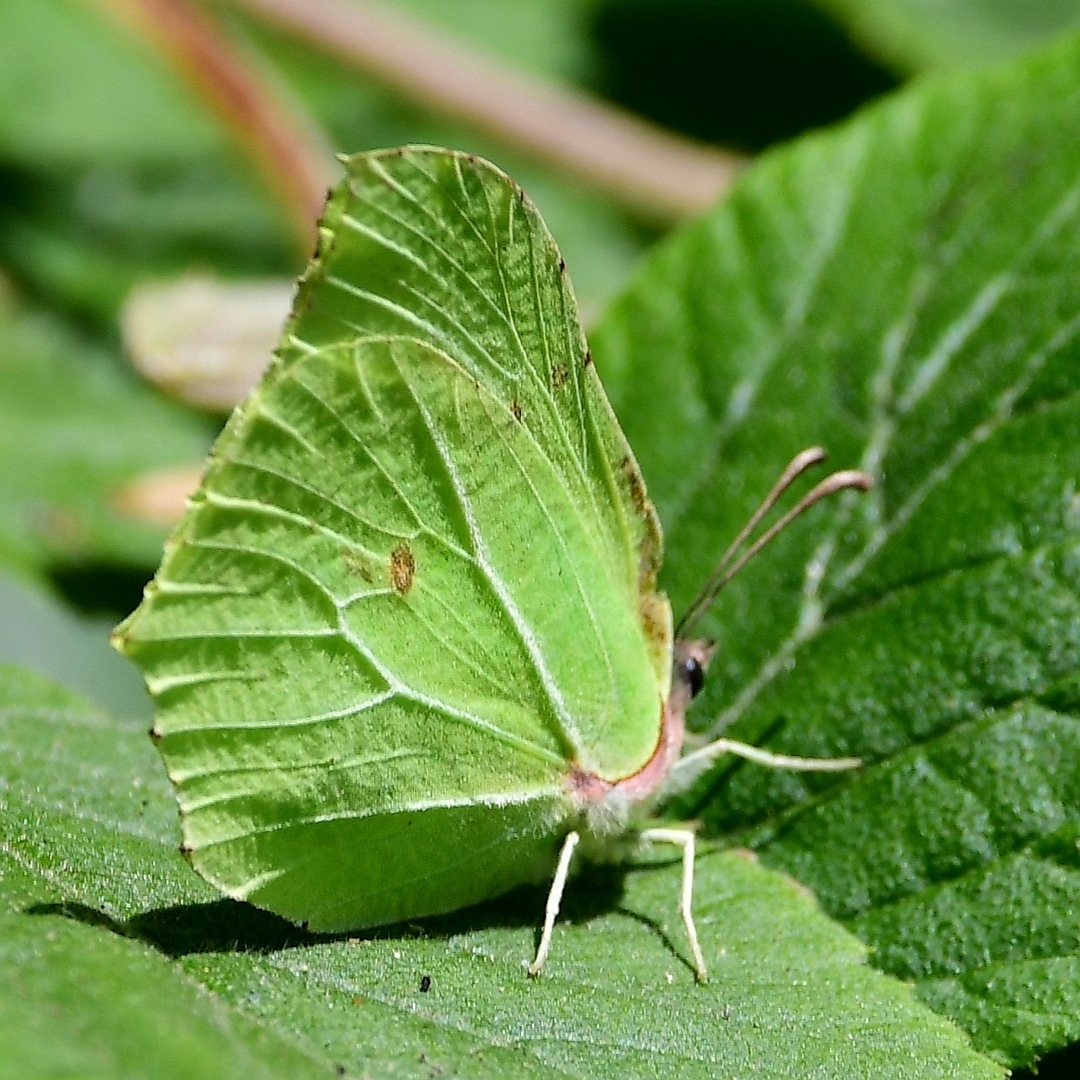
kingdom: Animalia
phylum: Arthropoda
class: Insecta
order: Lepidoptera
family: Pieridae
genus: Gonepteryx
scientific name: Gonepteryx rhamni
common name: Brimstone
